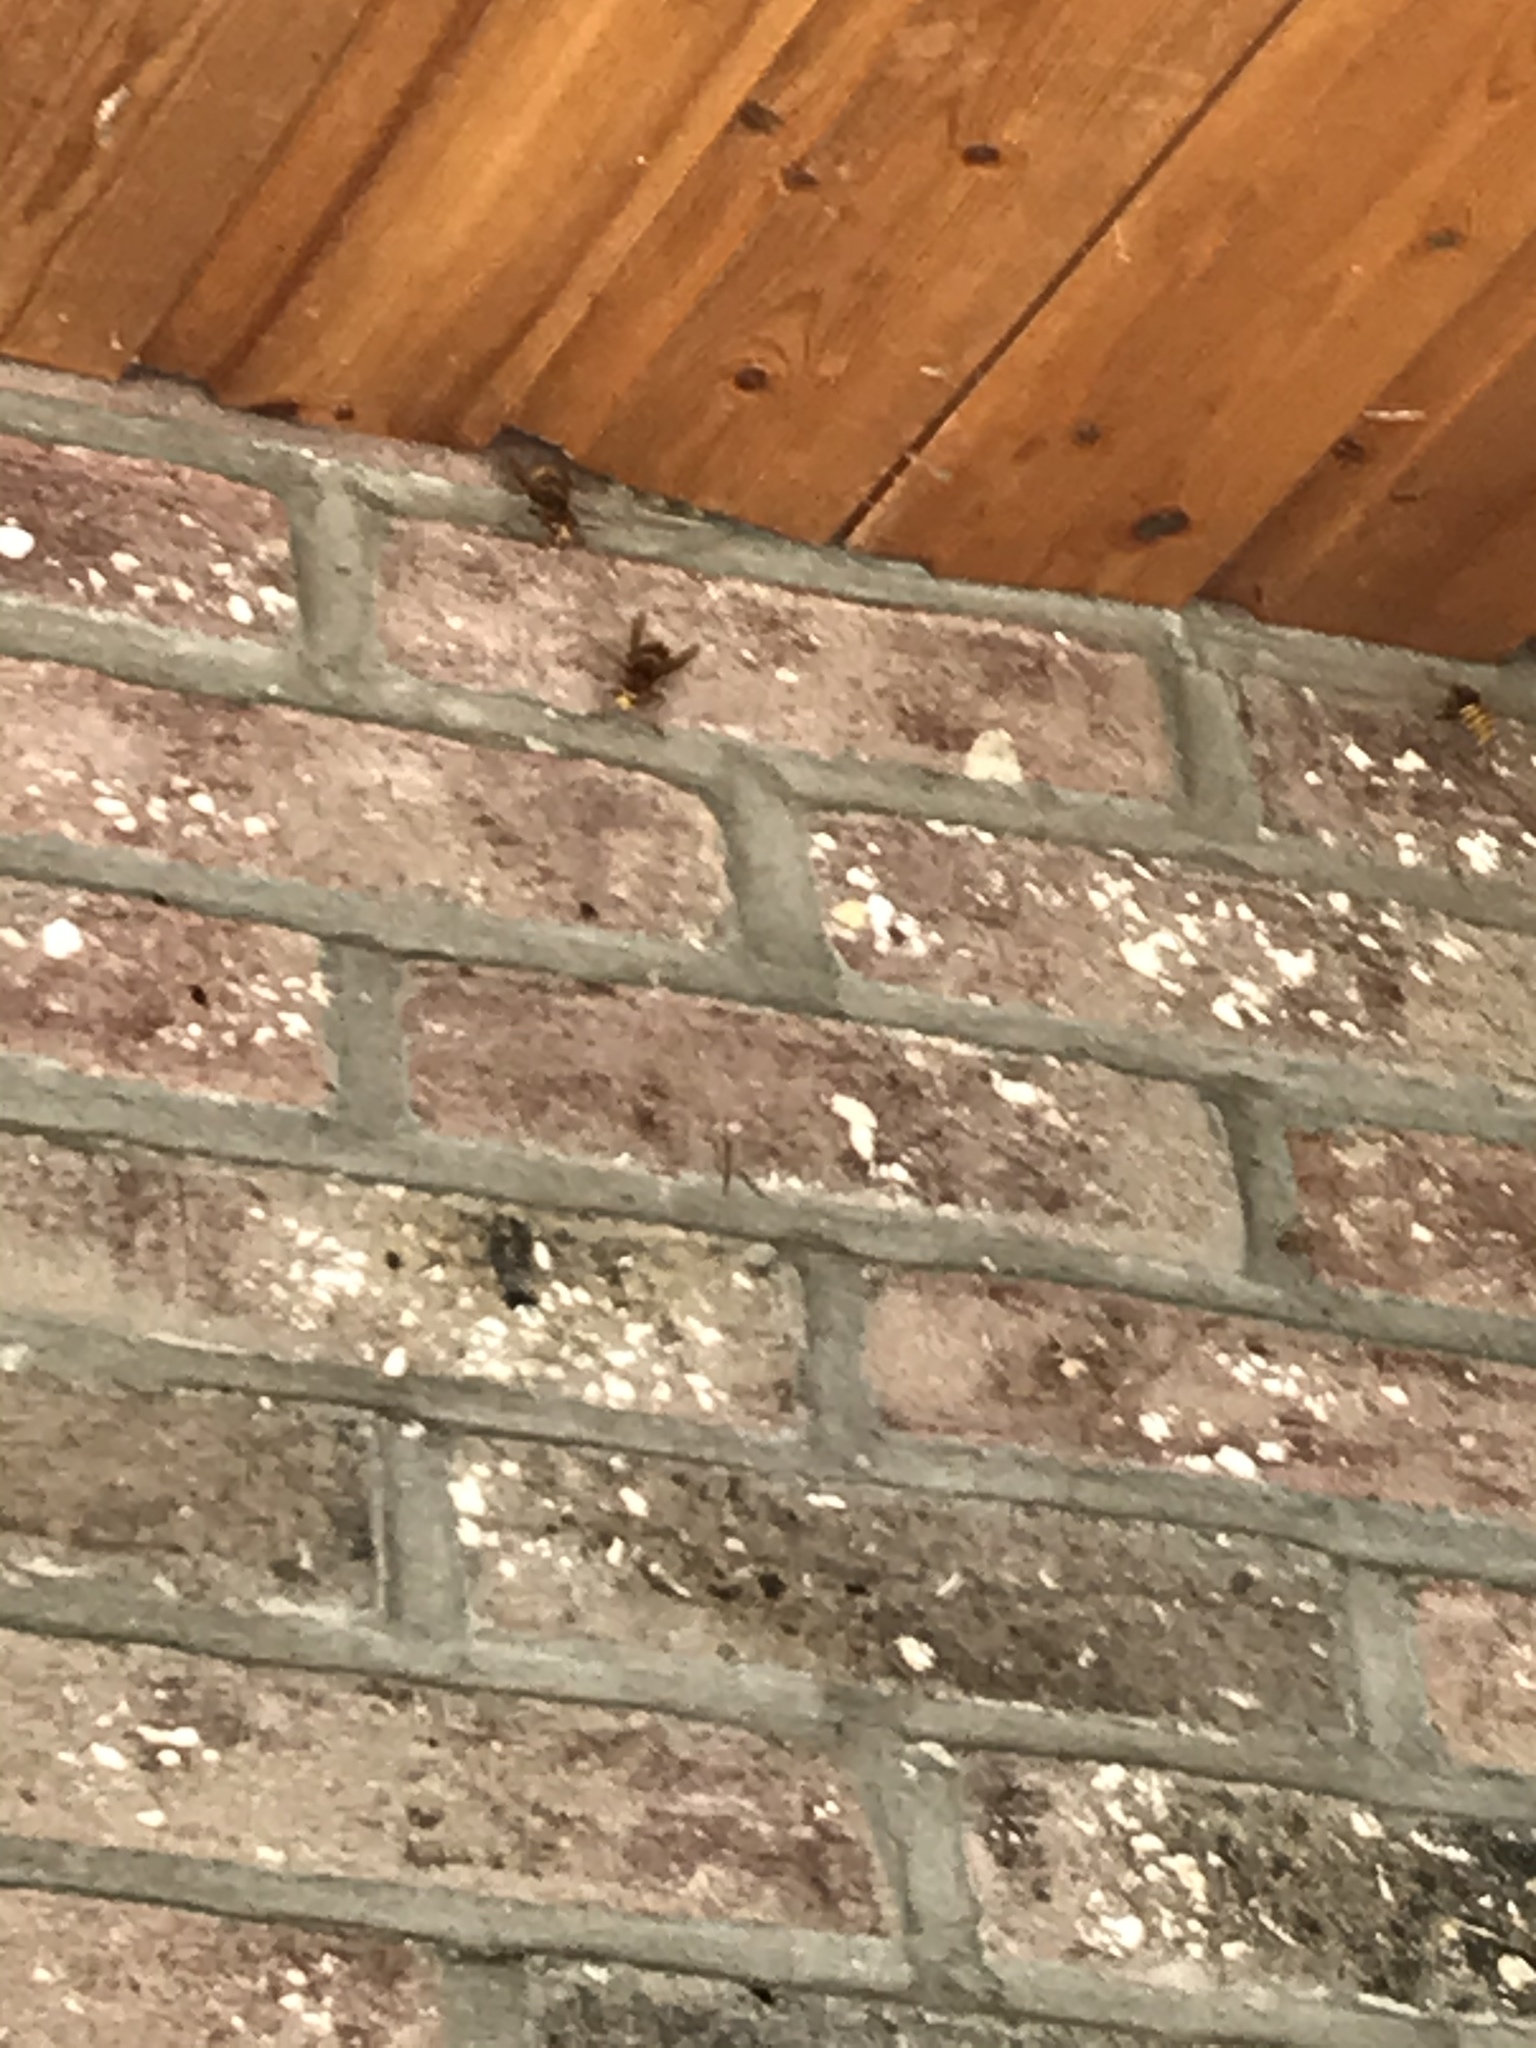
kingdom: Animalia
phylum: Arthropoda
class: Insecta
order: Hymenoptera
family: Vespidae
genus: Vespa
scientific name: Vespa crabro
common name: Hornet
